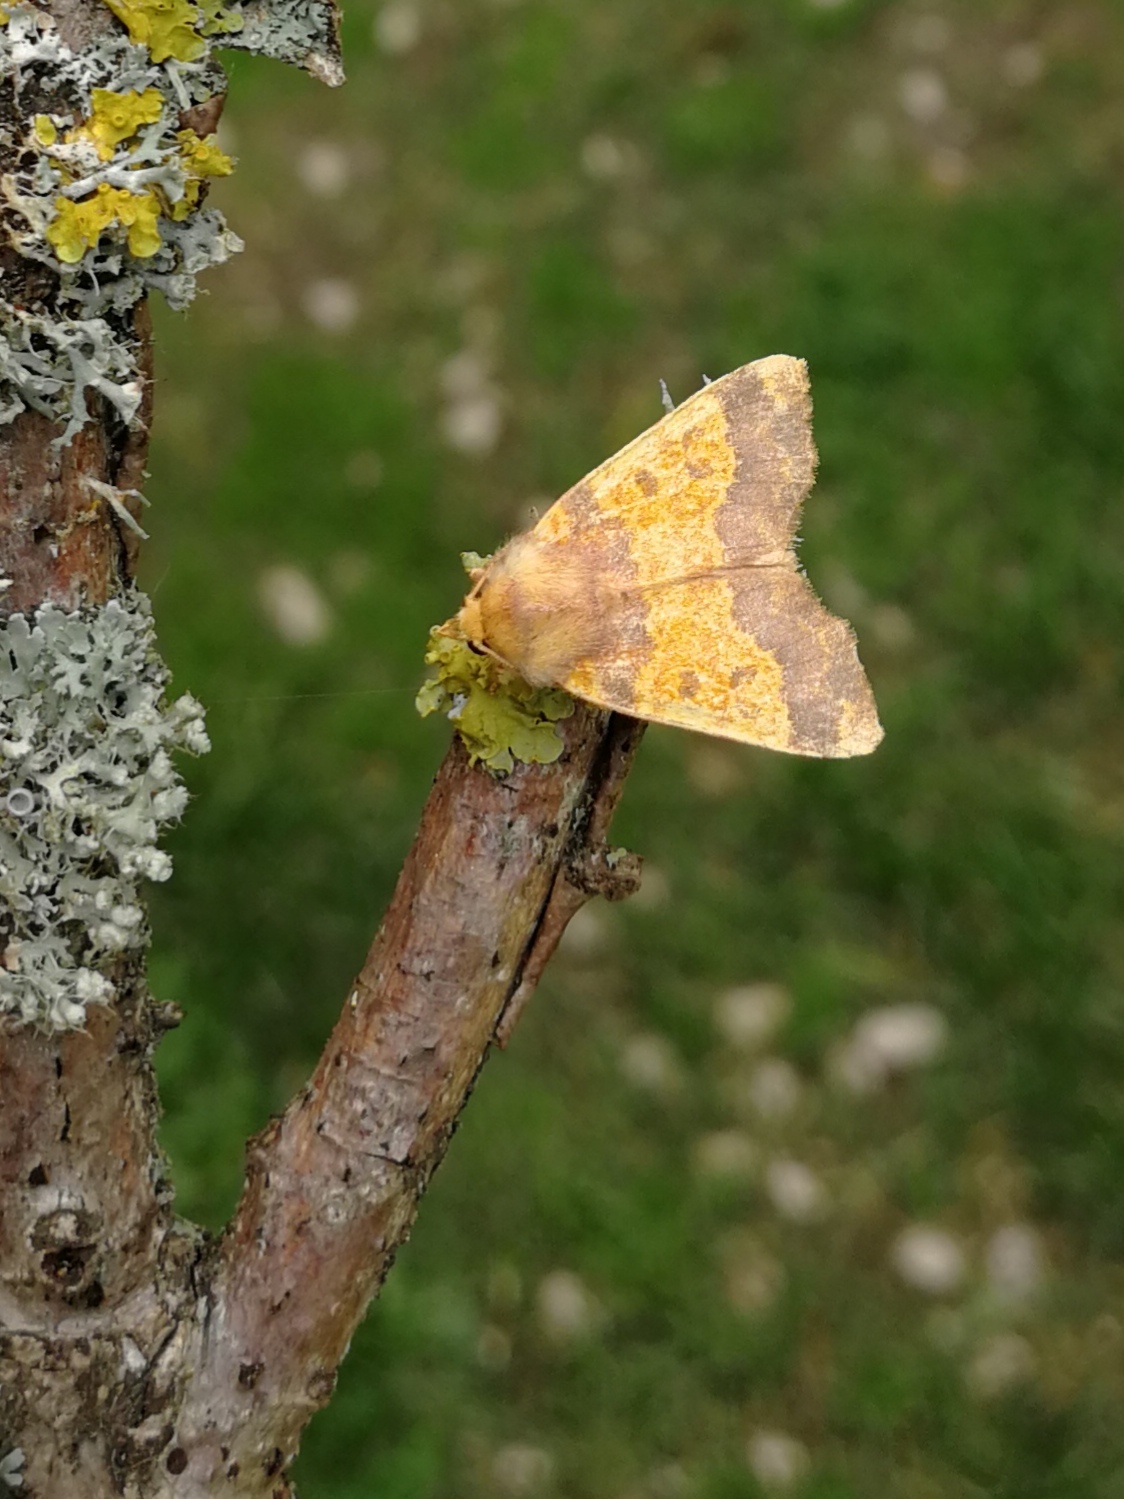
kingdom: Animalia
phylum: Arthropoda
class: Insecta
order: Lepidoptera
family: Noctuidae
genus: Tiliacea
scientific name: Tiliacea aurago
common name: Barred sallow
